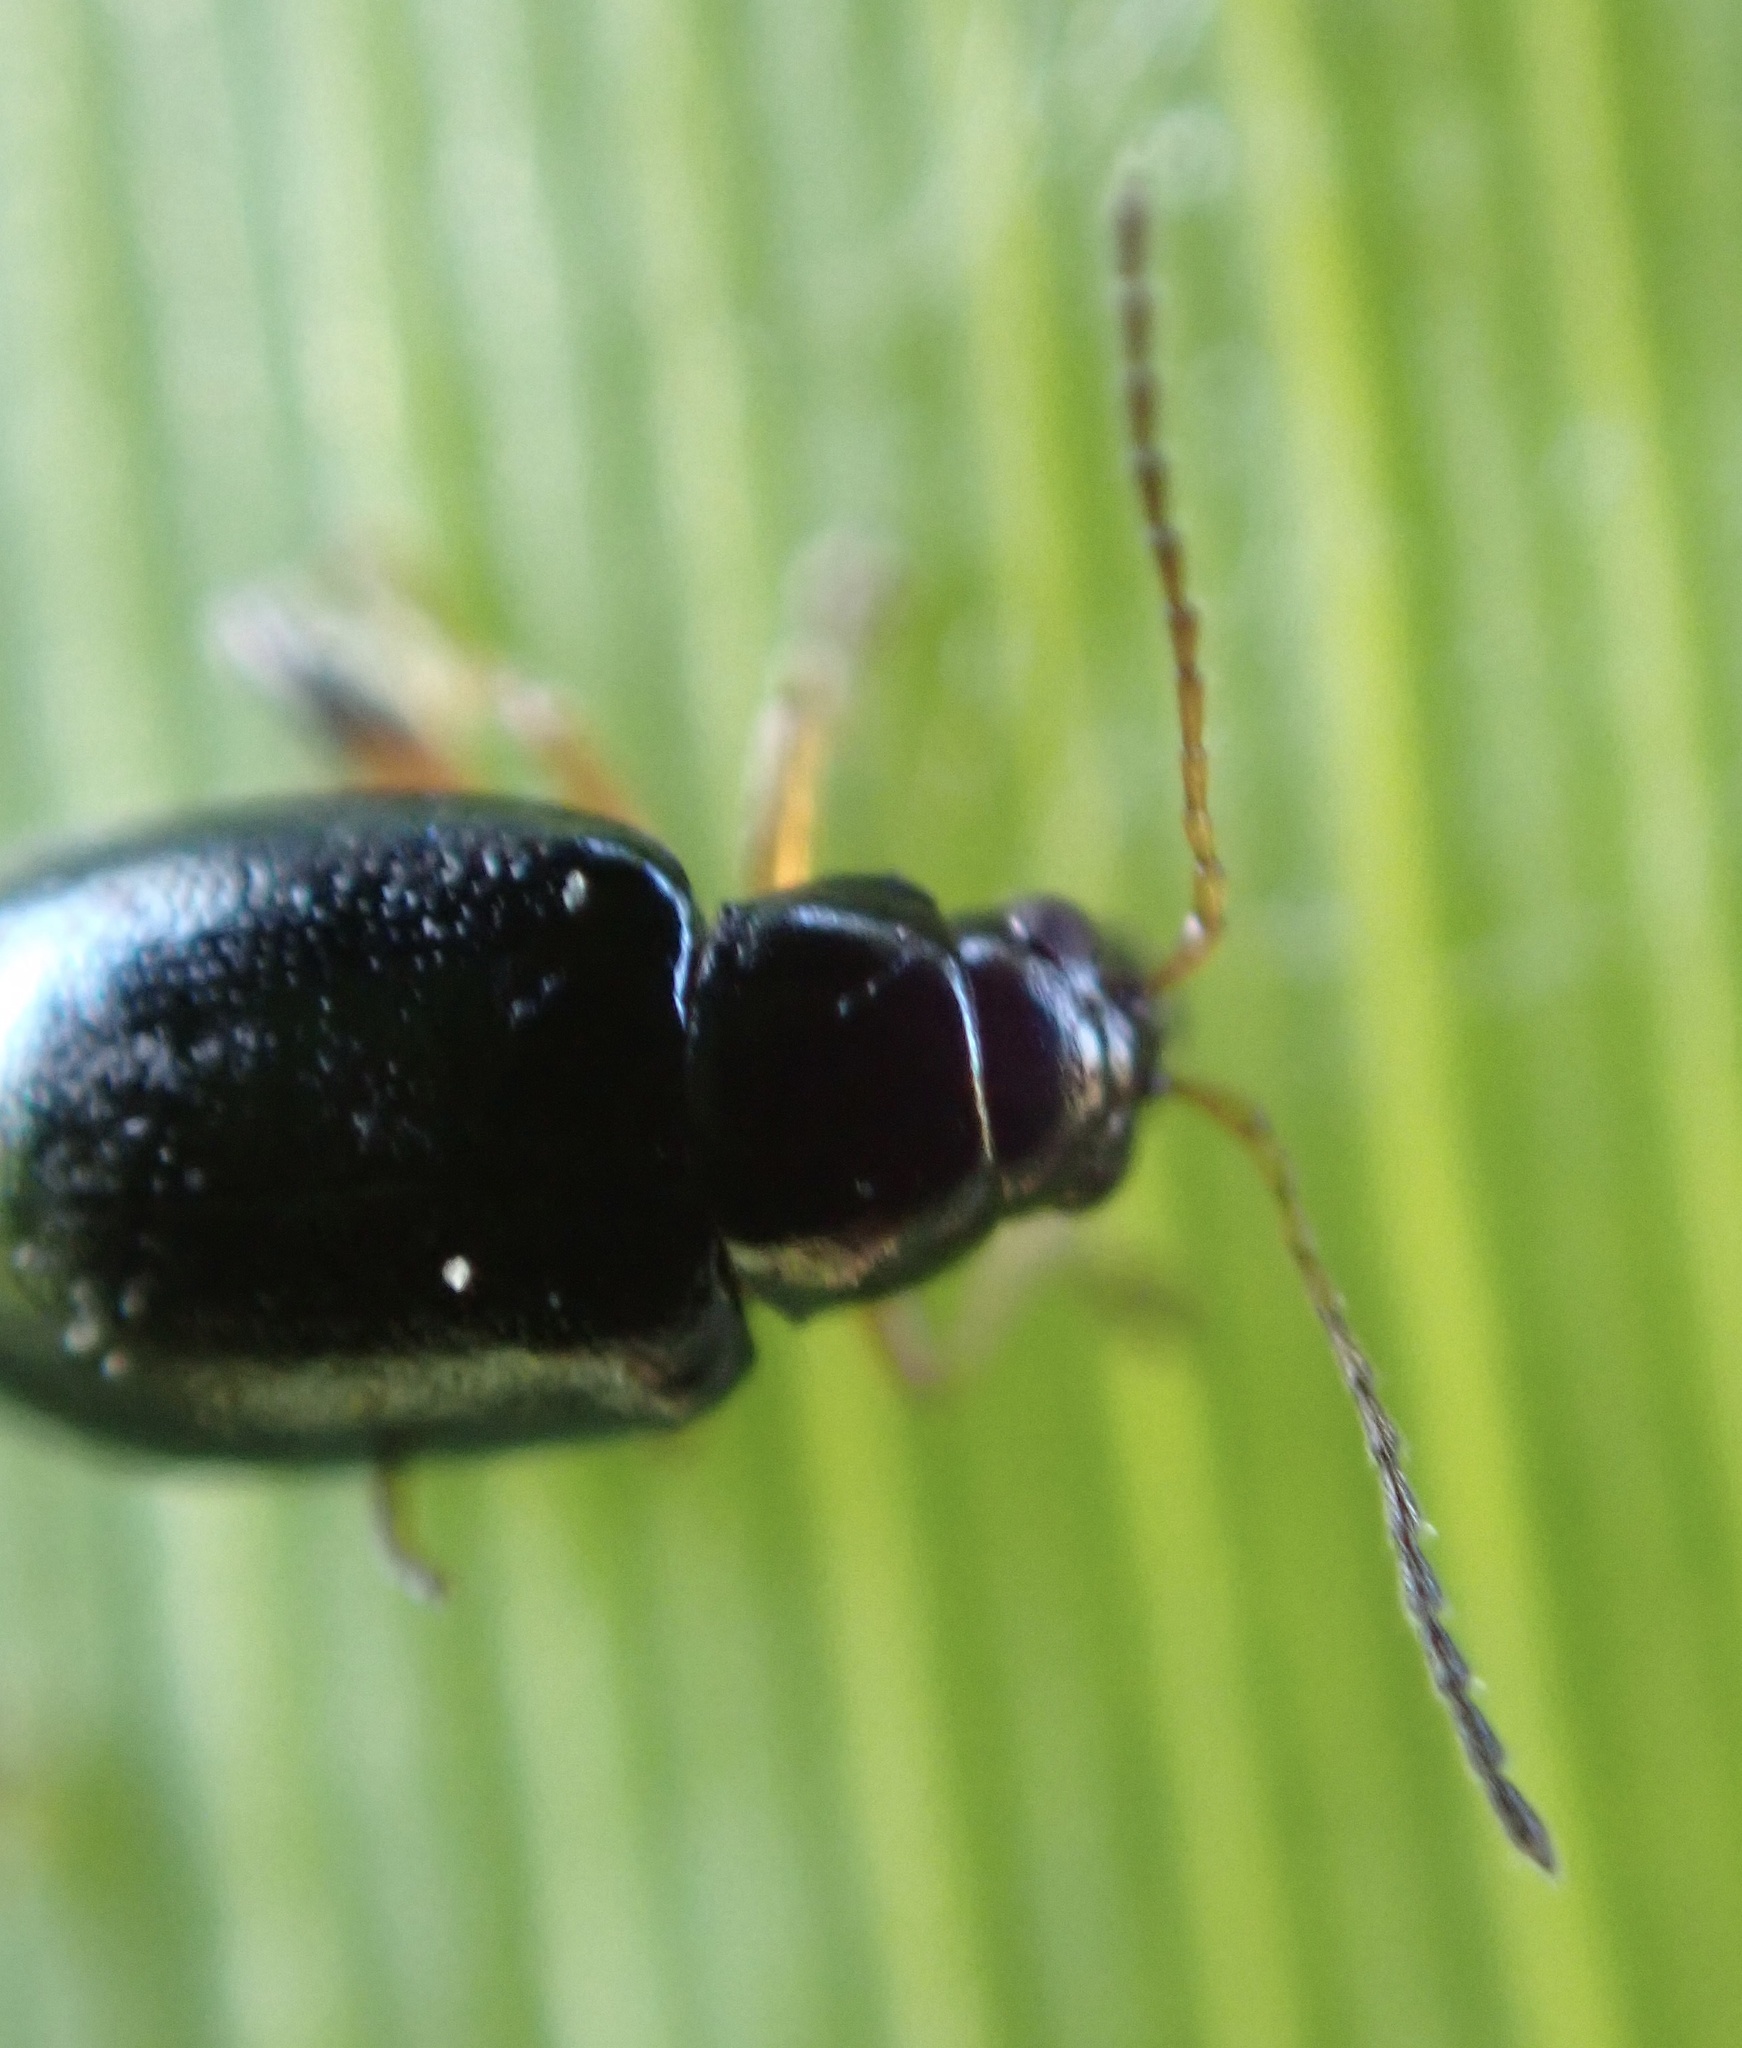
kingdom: Animalia
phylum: Arthropoda
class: Insecta
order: Coleoptera
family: Chrysomelidae
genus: Aphthona
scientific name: Aphthona nonstriata
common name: Iris flea beetle
